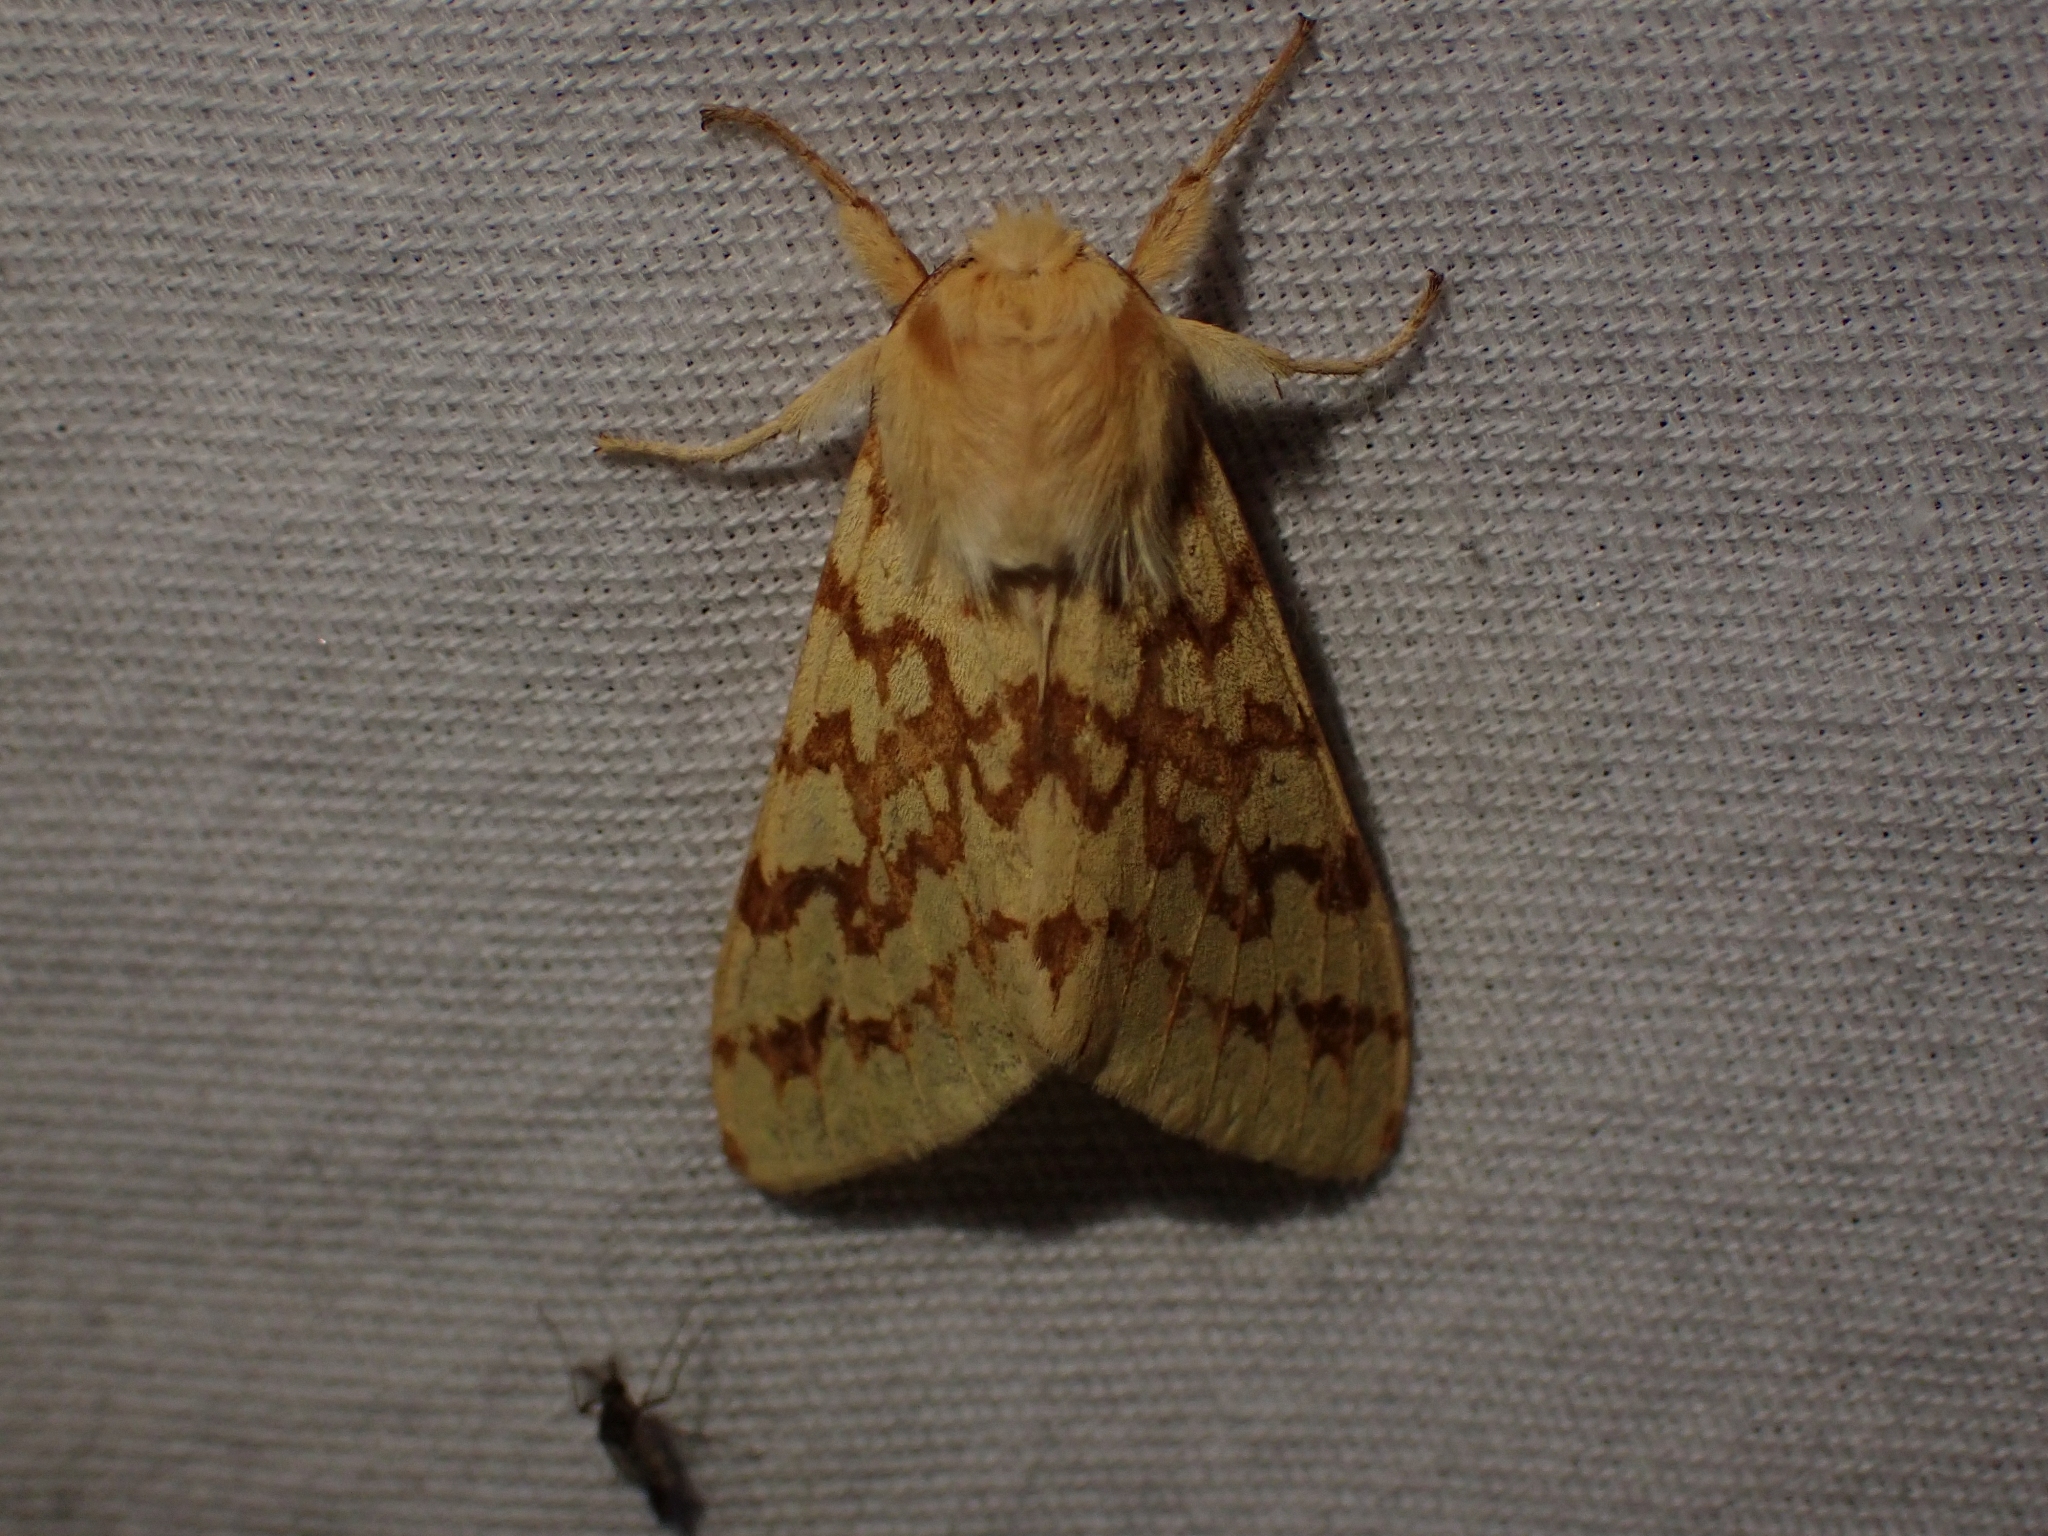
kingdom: Animalia
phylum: Arthropoda
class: Insecta
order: Lepidoptera
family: Erebidae
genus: Lophocampa
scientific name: Lophocampa maculata
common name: Spotted tussock moth
